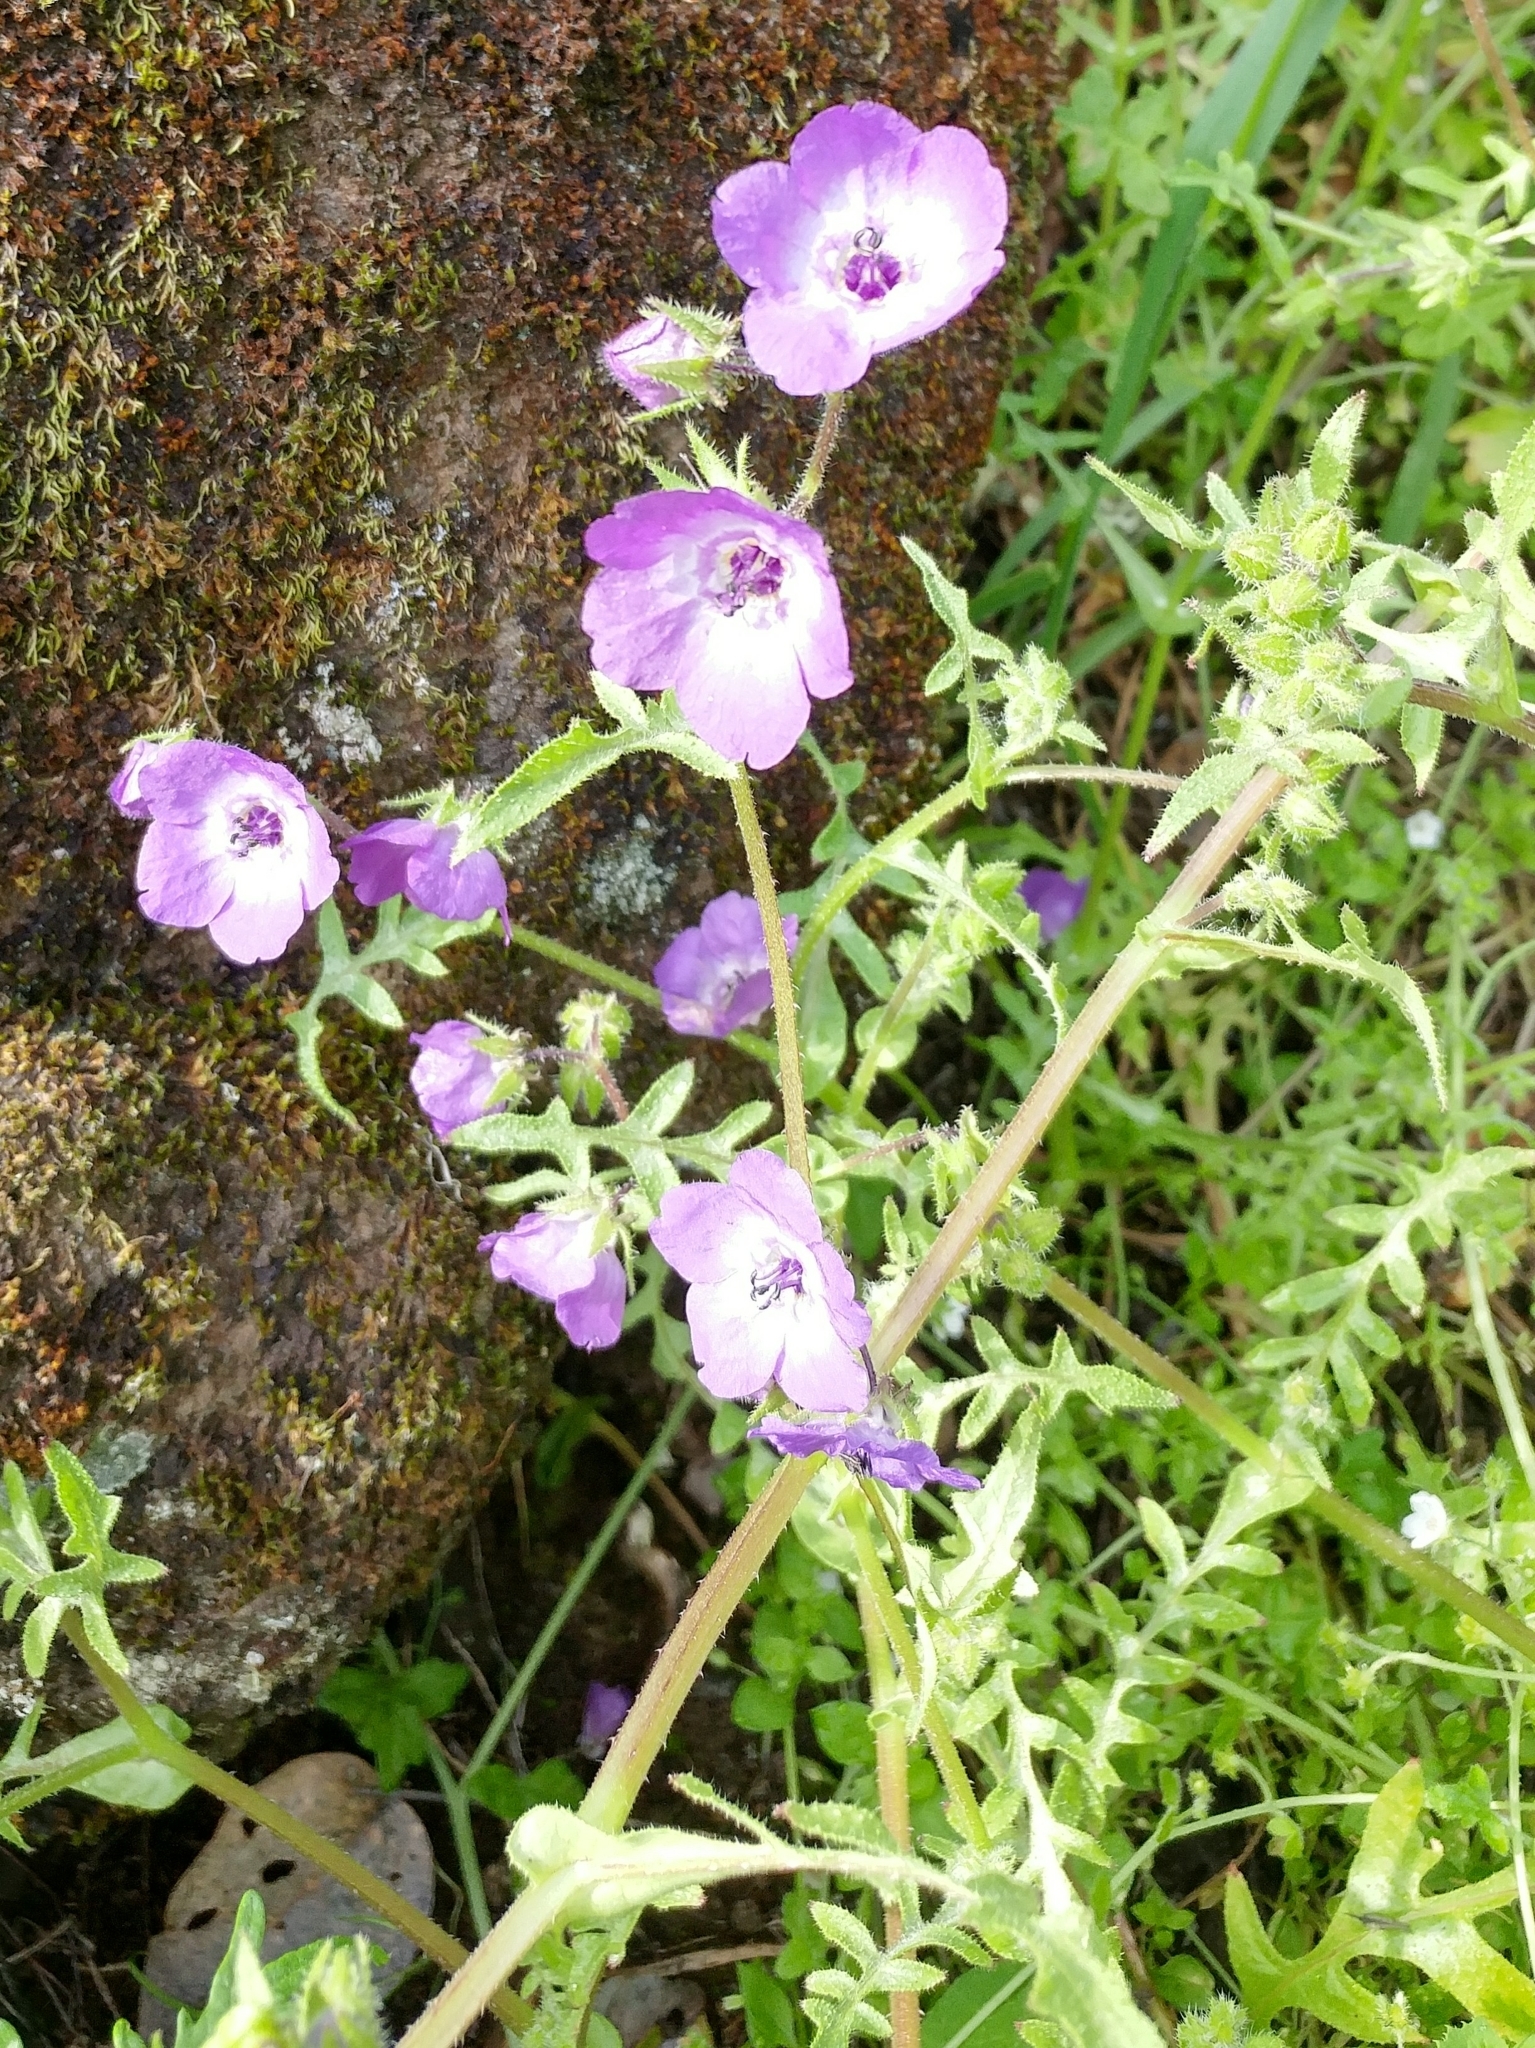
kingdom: Plantae
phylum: Tracheophyta
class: Magnoliopsida
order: Boraginales
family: Hydrophyllaceae
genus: Pholistoma
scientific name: Pholistoma auritum
